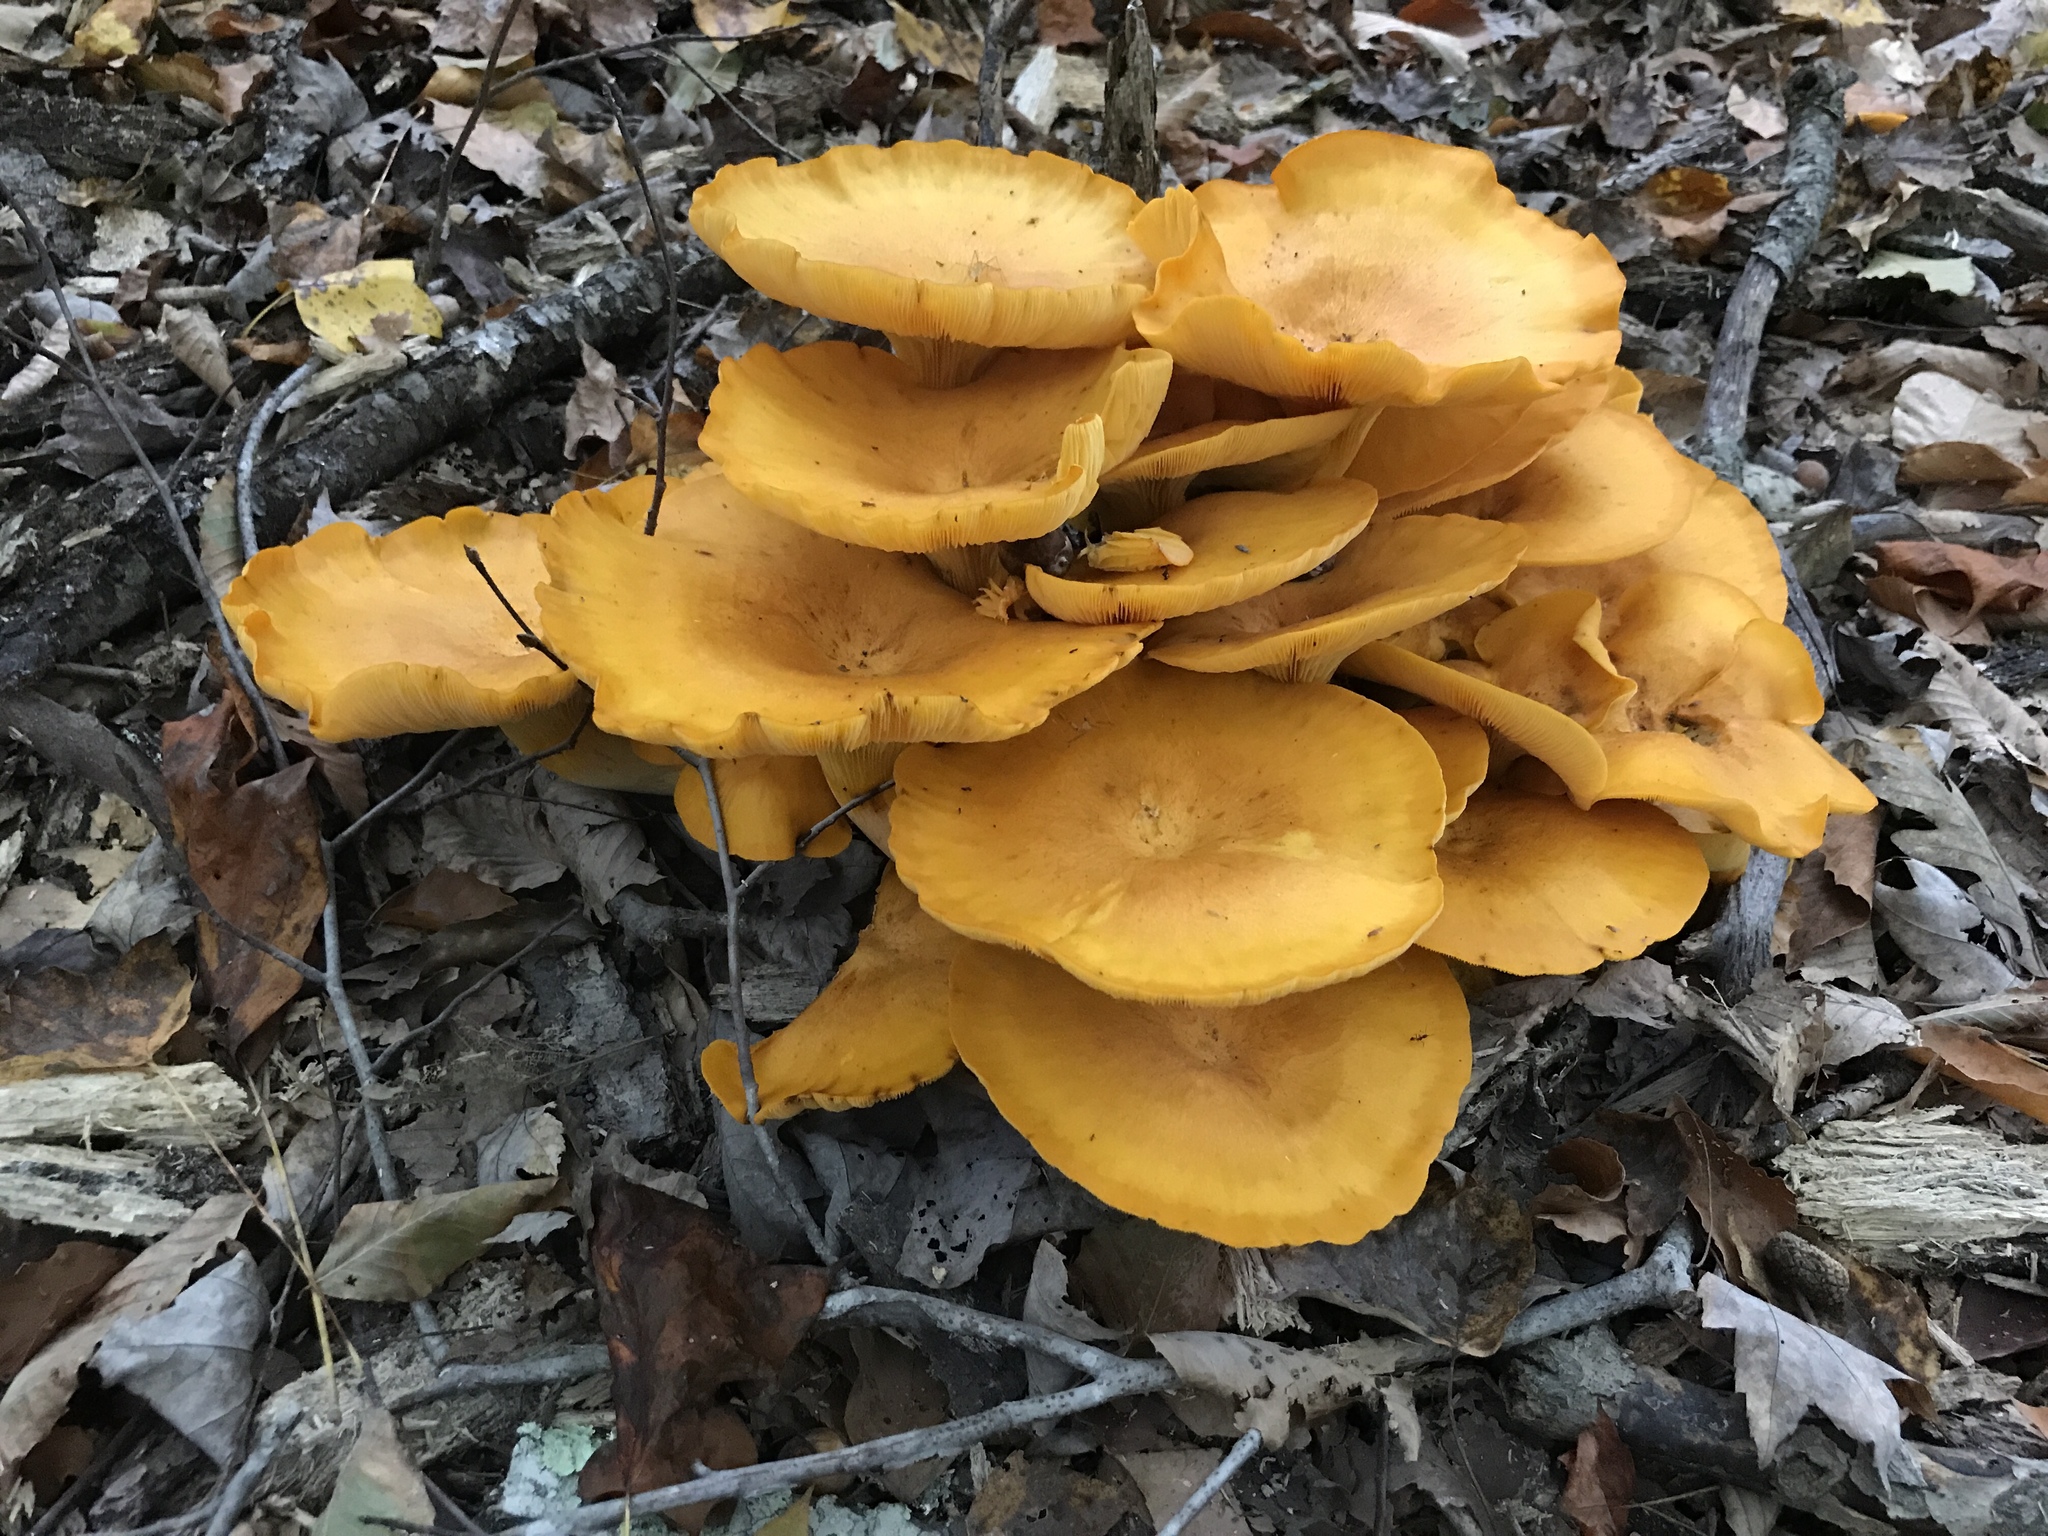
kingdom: Fungi
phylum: Basidiomycota
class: Agaricomycetes
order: Agaricales
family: Omphalotaceae
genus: Omphalotus
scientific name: Omphalotus illudens
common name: Jack o lantern
